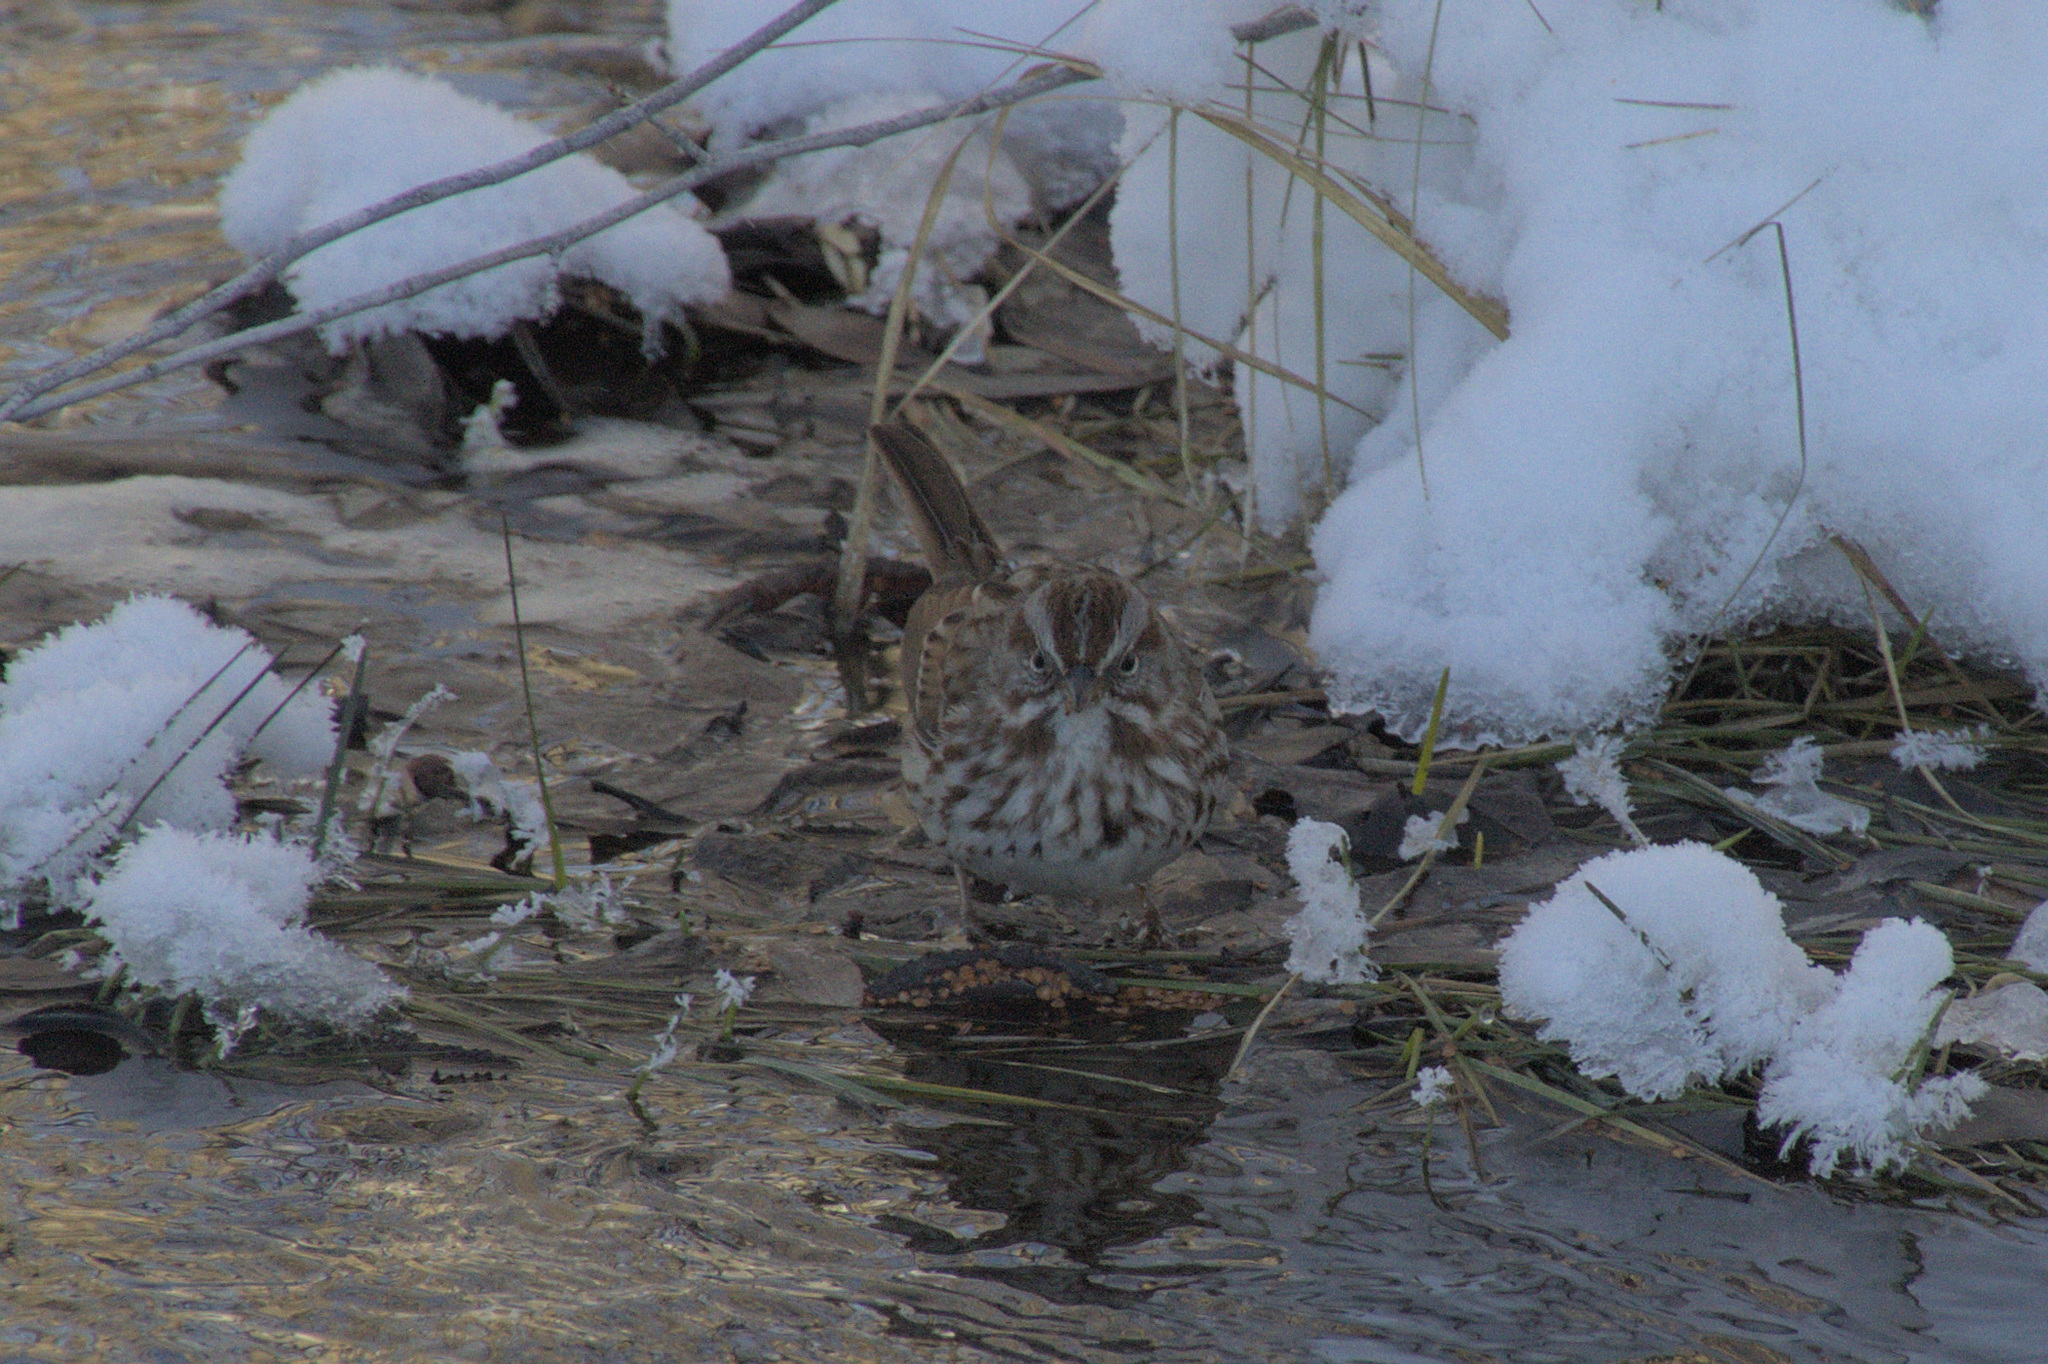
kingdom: Animalia
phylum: Chordata
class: Aves
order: Passeriformes
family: Passerellidae
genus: Melospiza
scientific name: Melospiza melodia
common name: Song sparrow
